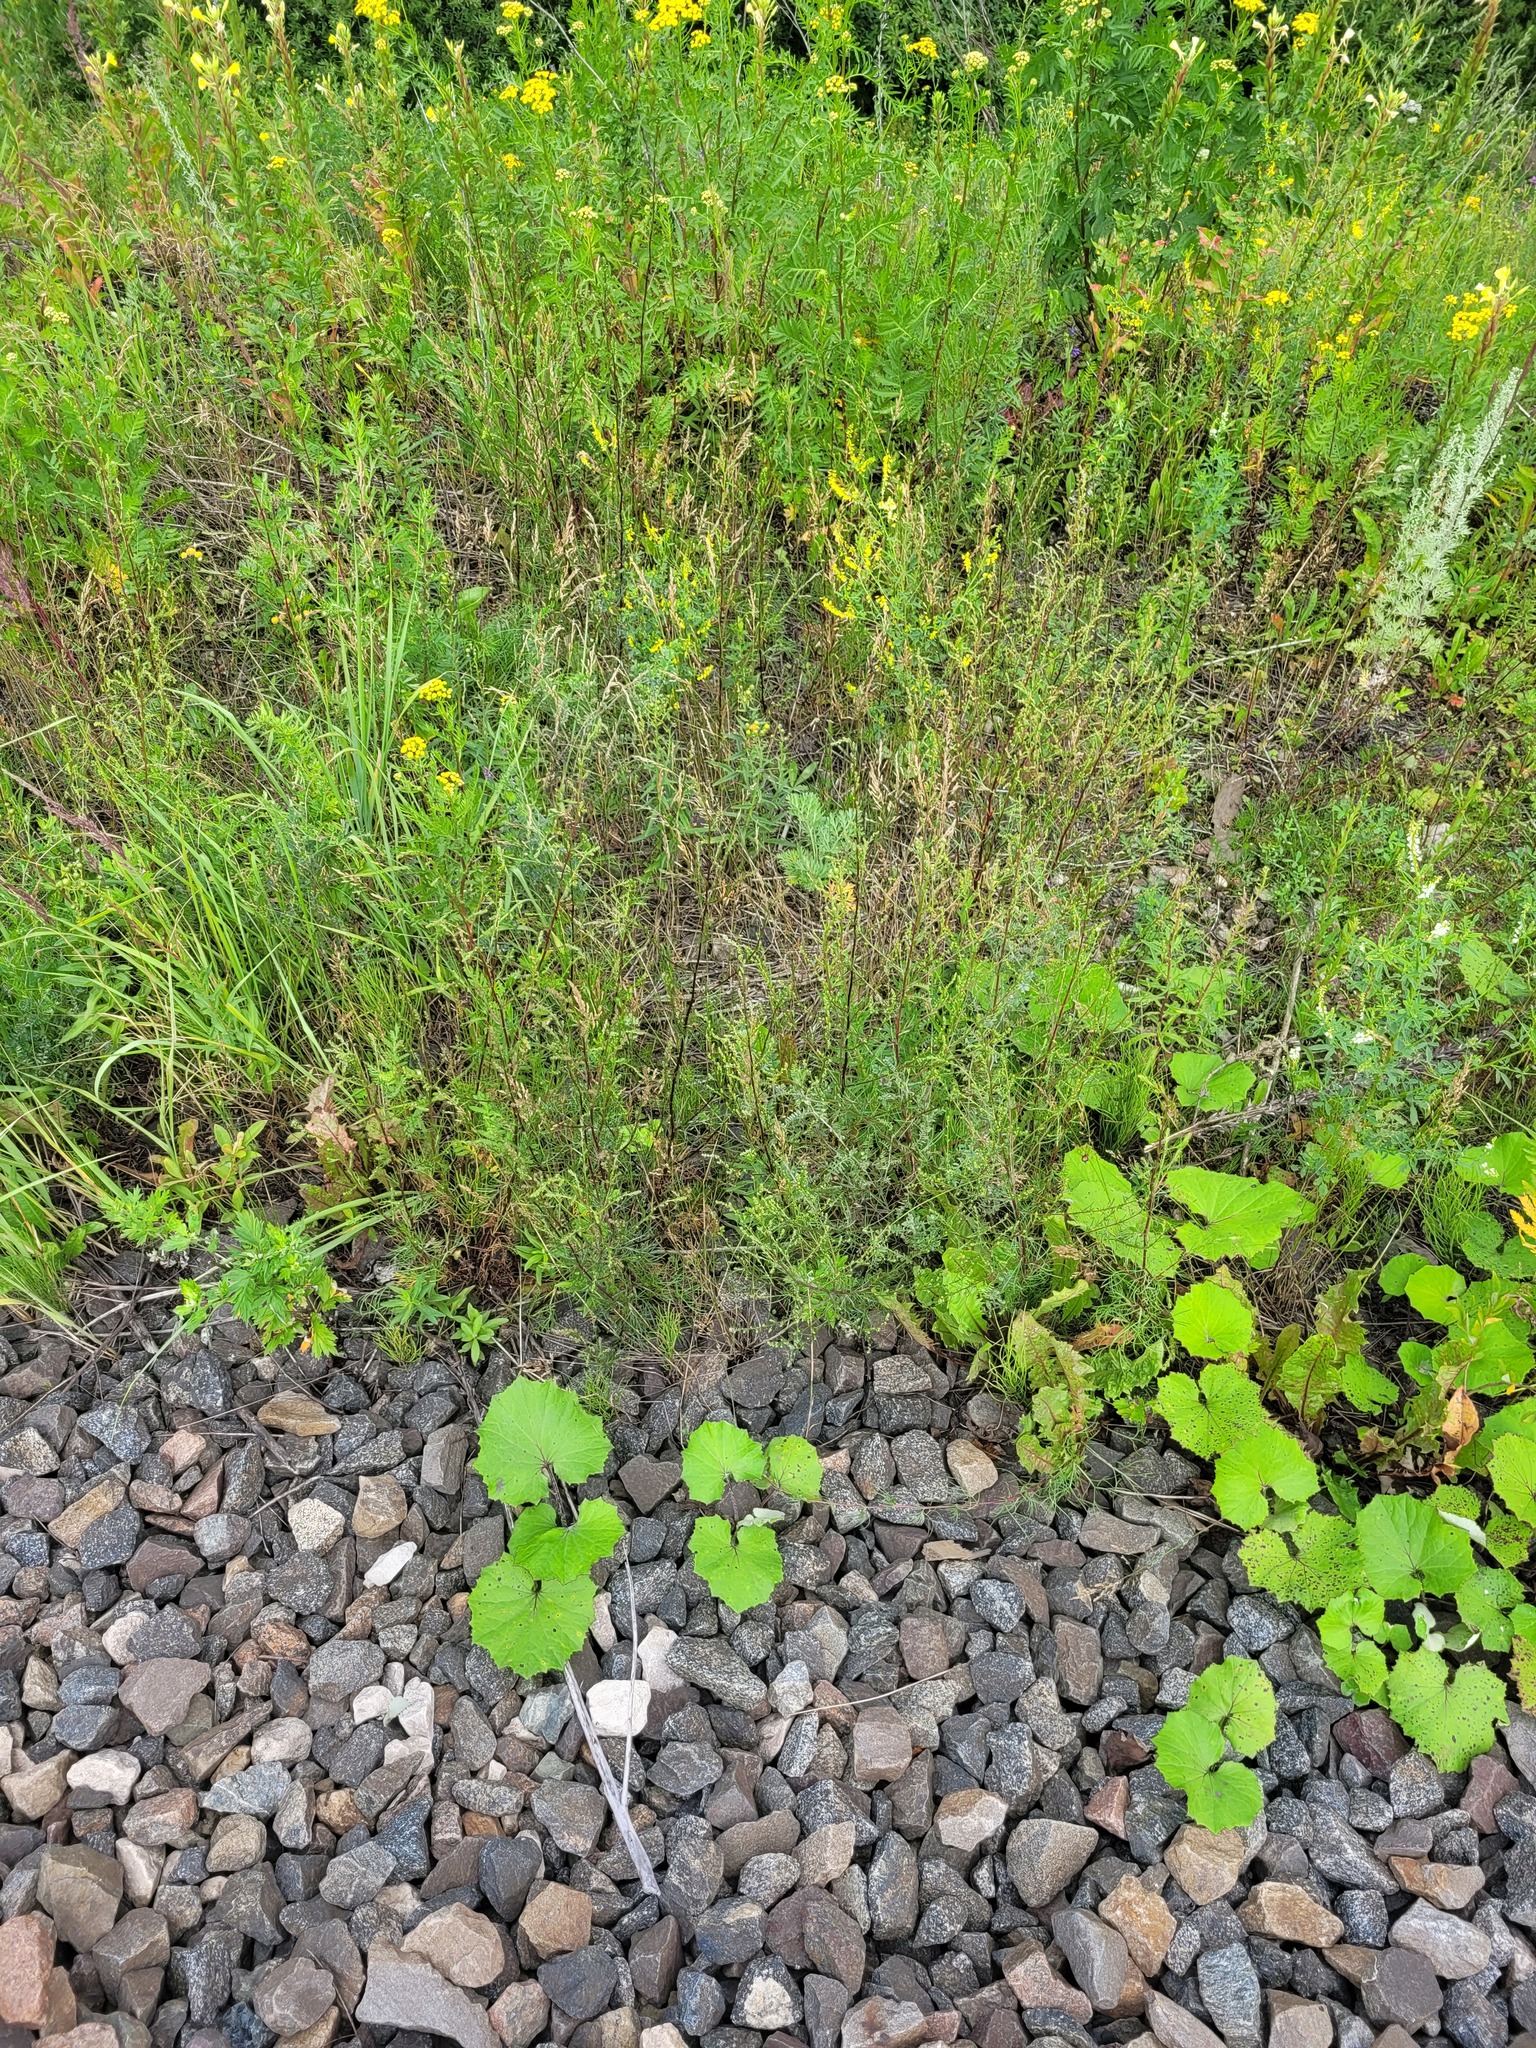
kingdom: Plantae
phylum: Tracheophyta
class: Magnoliopsida
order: Asterales
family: Asteraceae
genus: Artemisia
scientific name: Artemisia campestris
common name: Field wormwood
